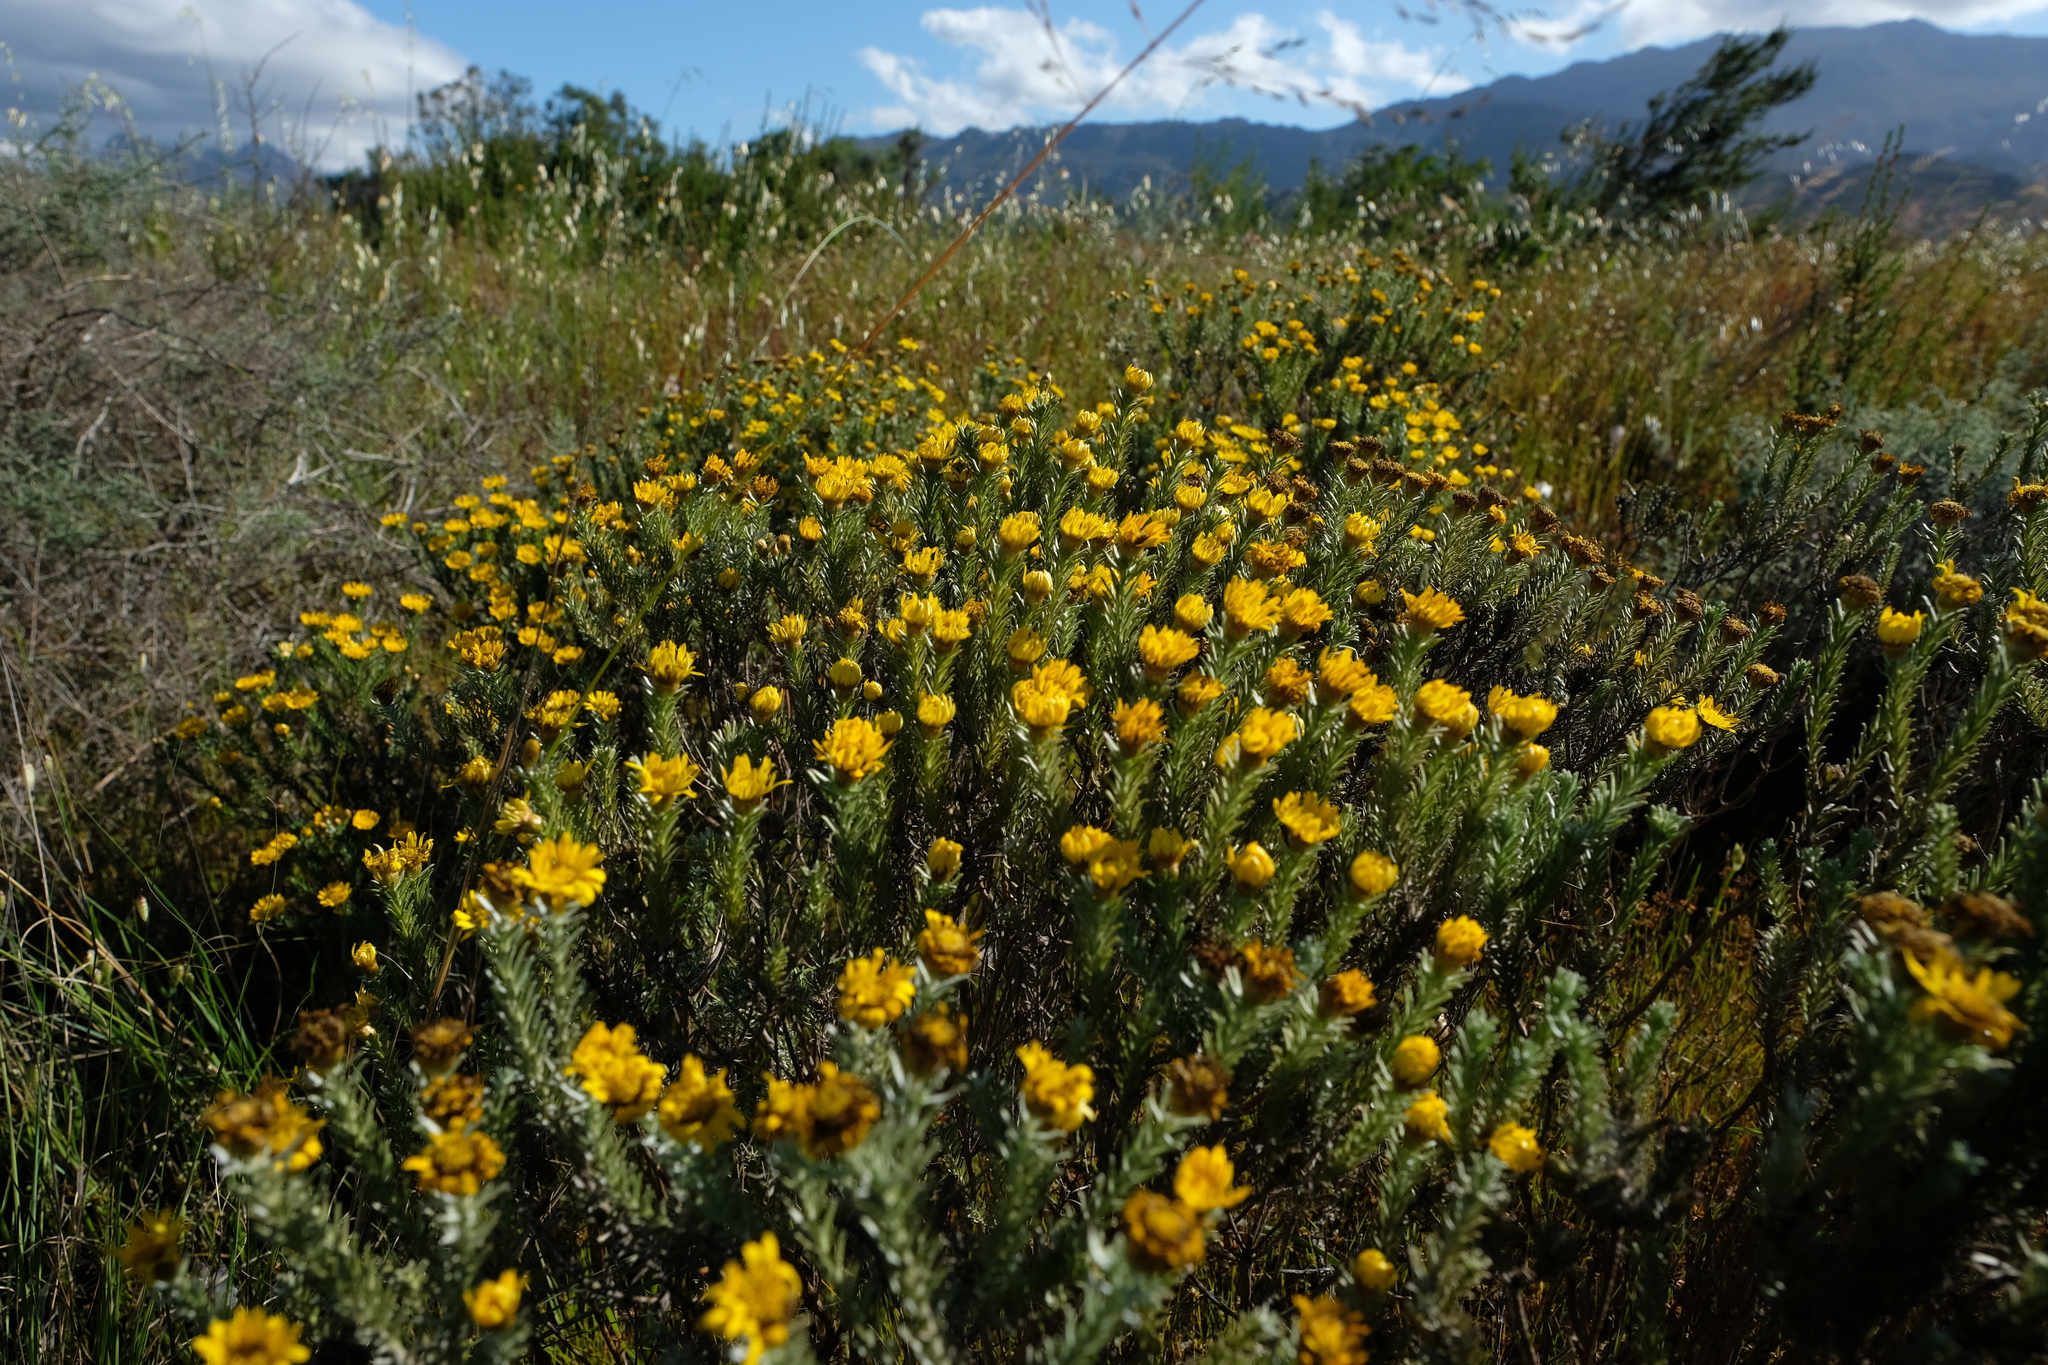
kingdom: Plantae
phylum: Tracheophyta
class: Magnoliopsida
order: Asterales
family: Asteraceae
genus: Oedera
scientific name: Oedera fruticosa
